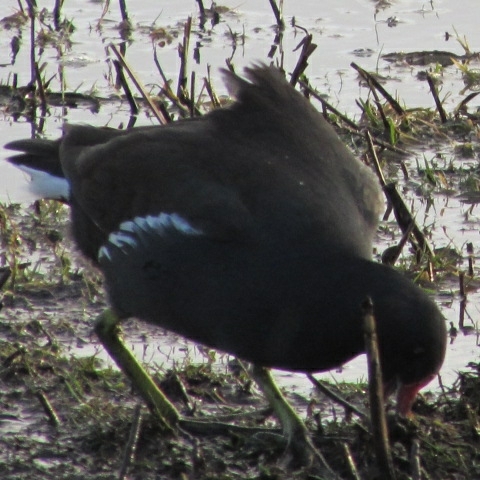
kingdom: Animalia
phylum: Chordata
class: Aves
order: Gruiformes
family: Rallidae
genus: Gallinula
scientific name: Gallinula chloropus
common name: Common moorhen
